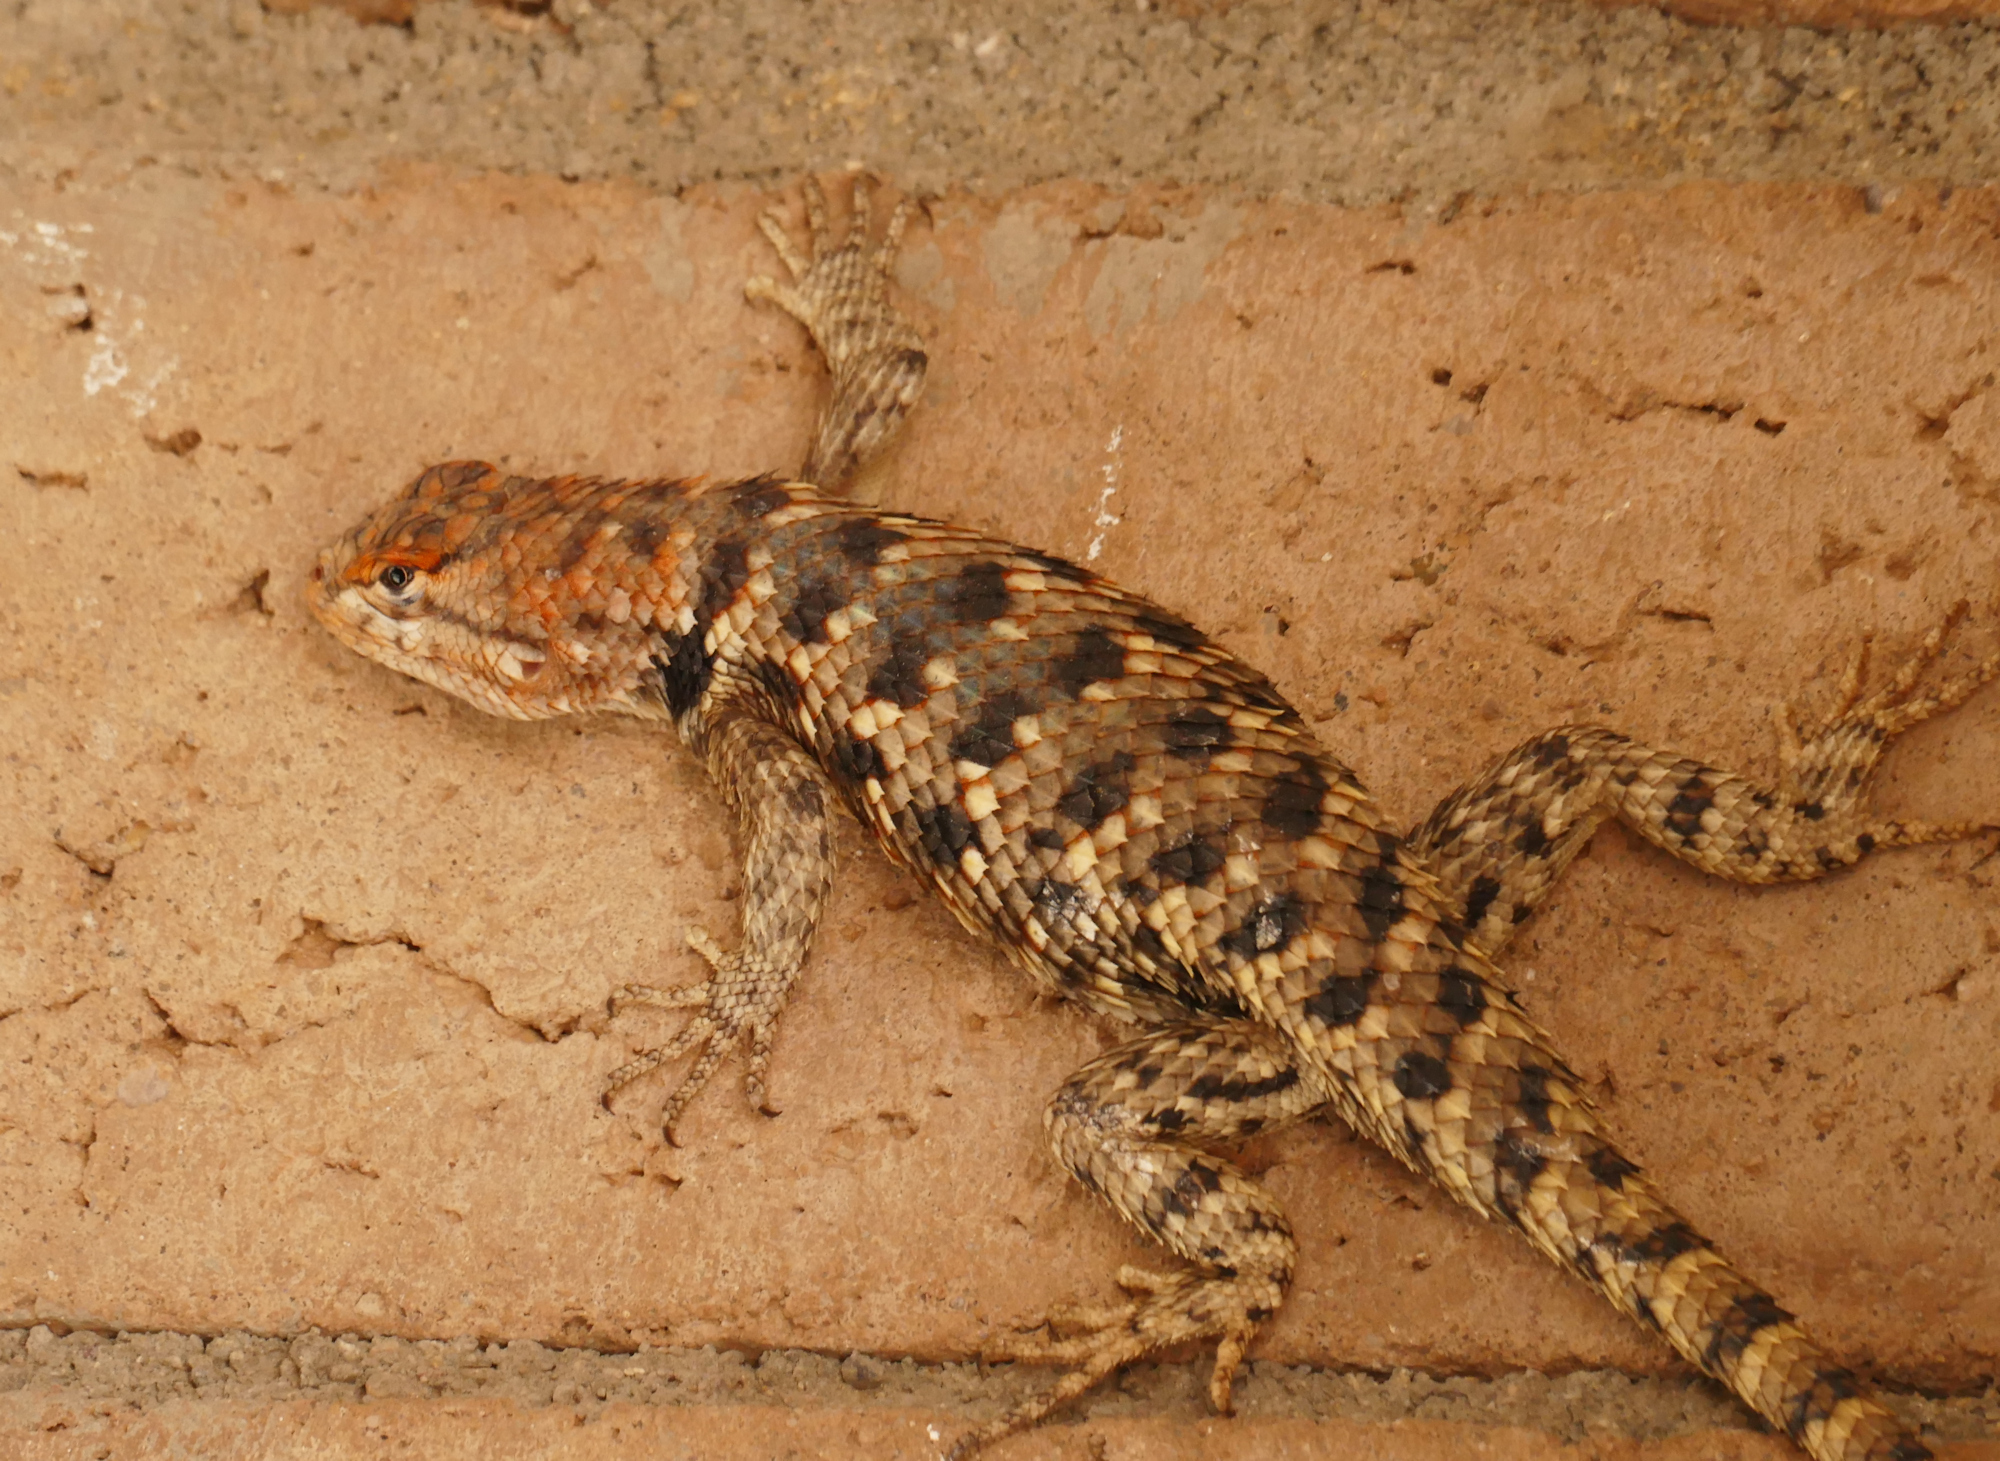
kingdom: Animalia
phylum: Chordata
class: Squamata
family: Phrynosomatidae
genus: Sceloporus
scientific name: Sceloporus bimaculosus
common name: Twin-spotted spiny lizard
